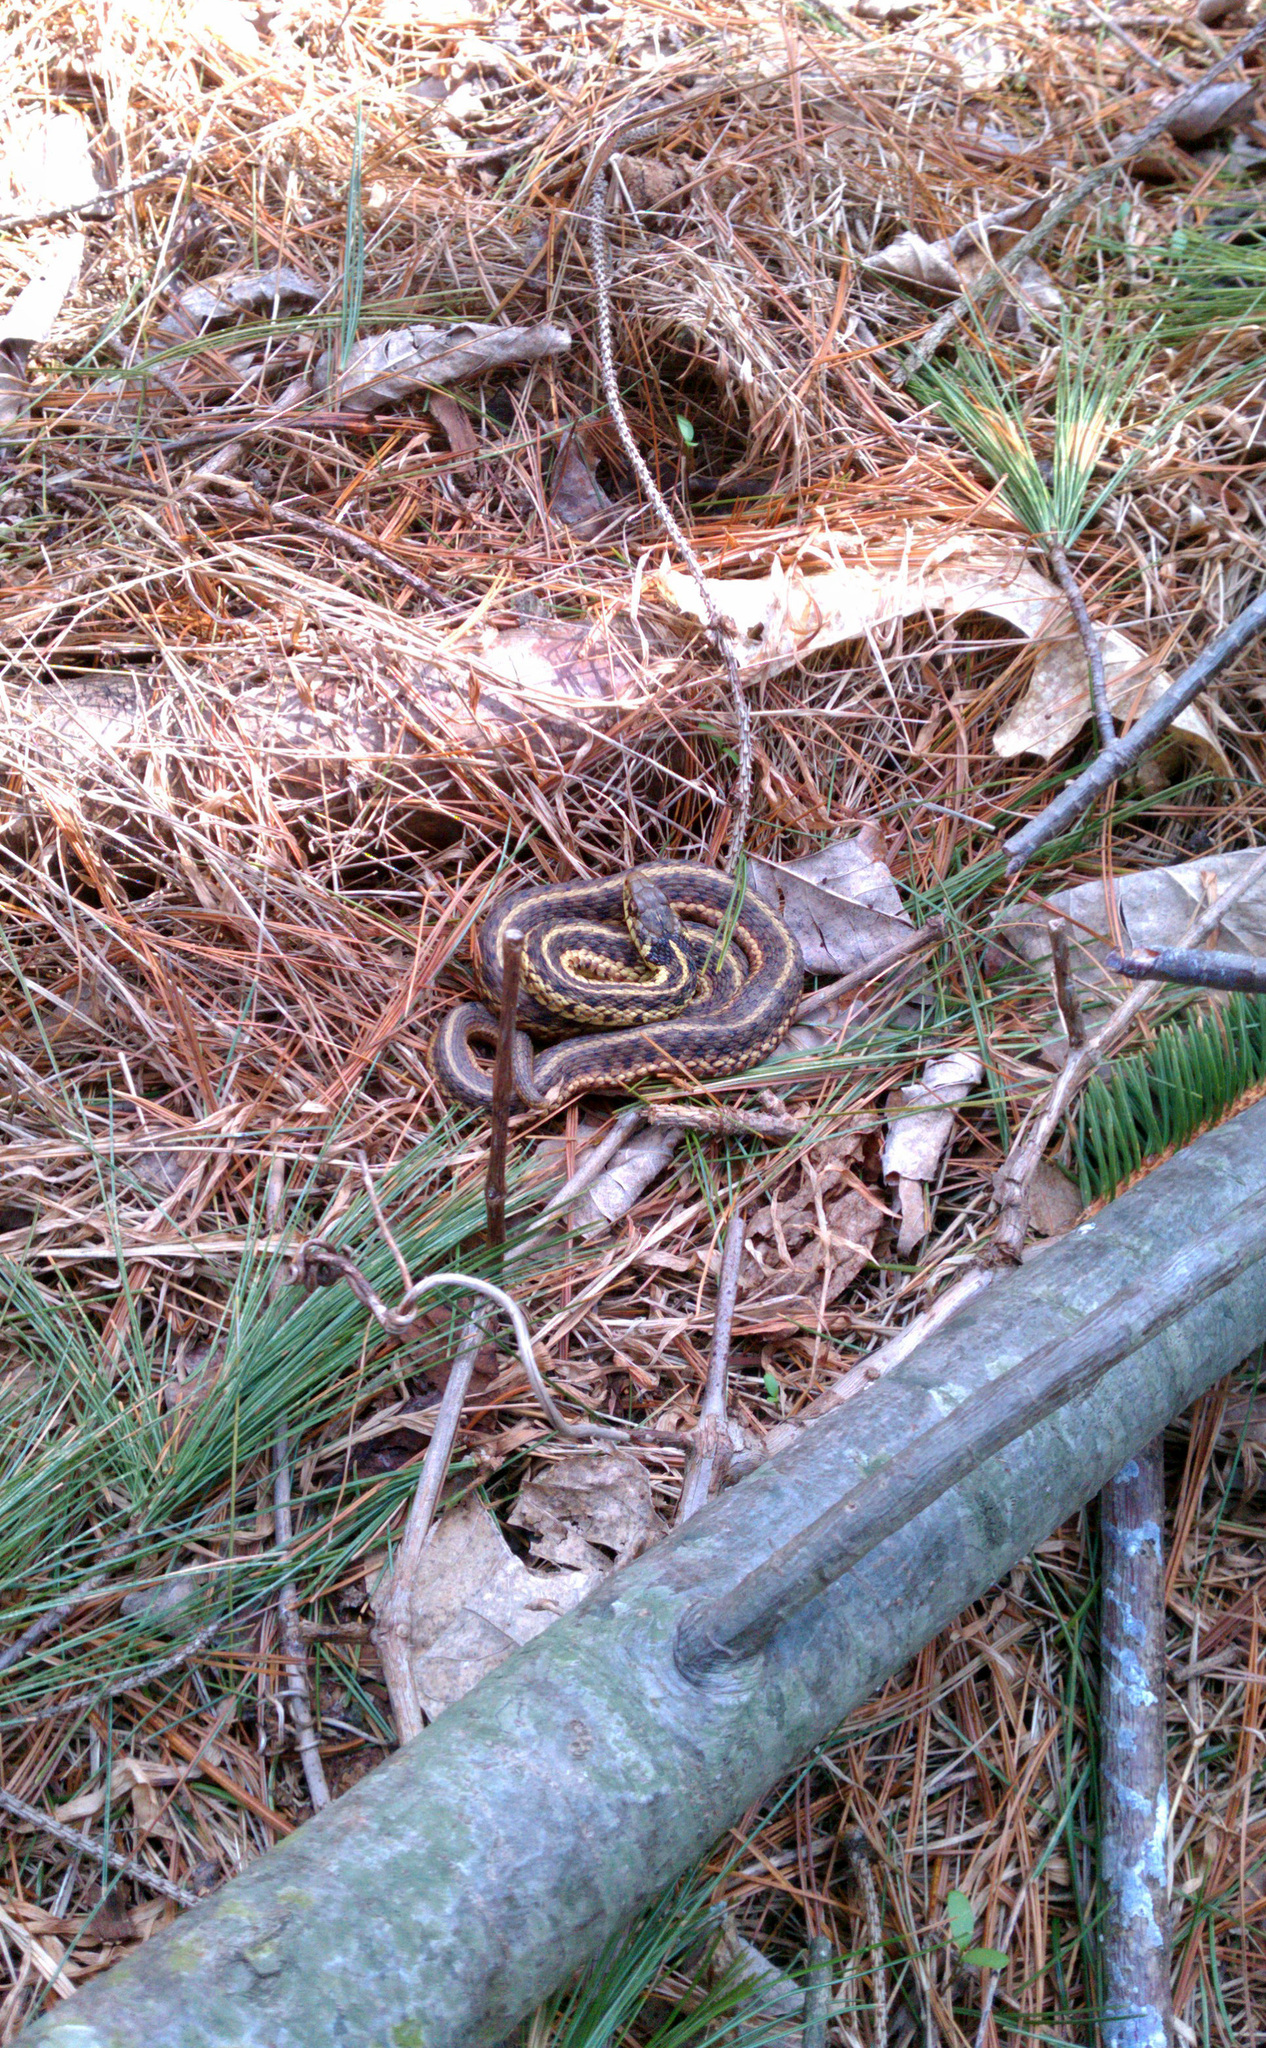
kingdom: Animalia
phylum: Chordata
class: Squamata
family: Colubridae
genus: Thamnophis
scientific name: Thamnophis sirtalis
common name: Common garter snake
